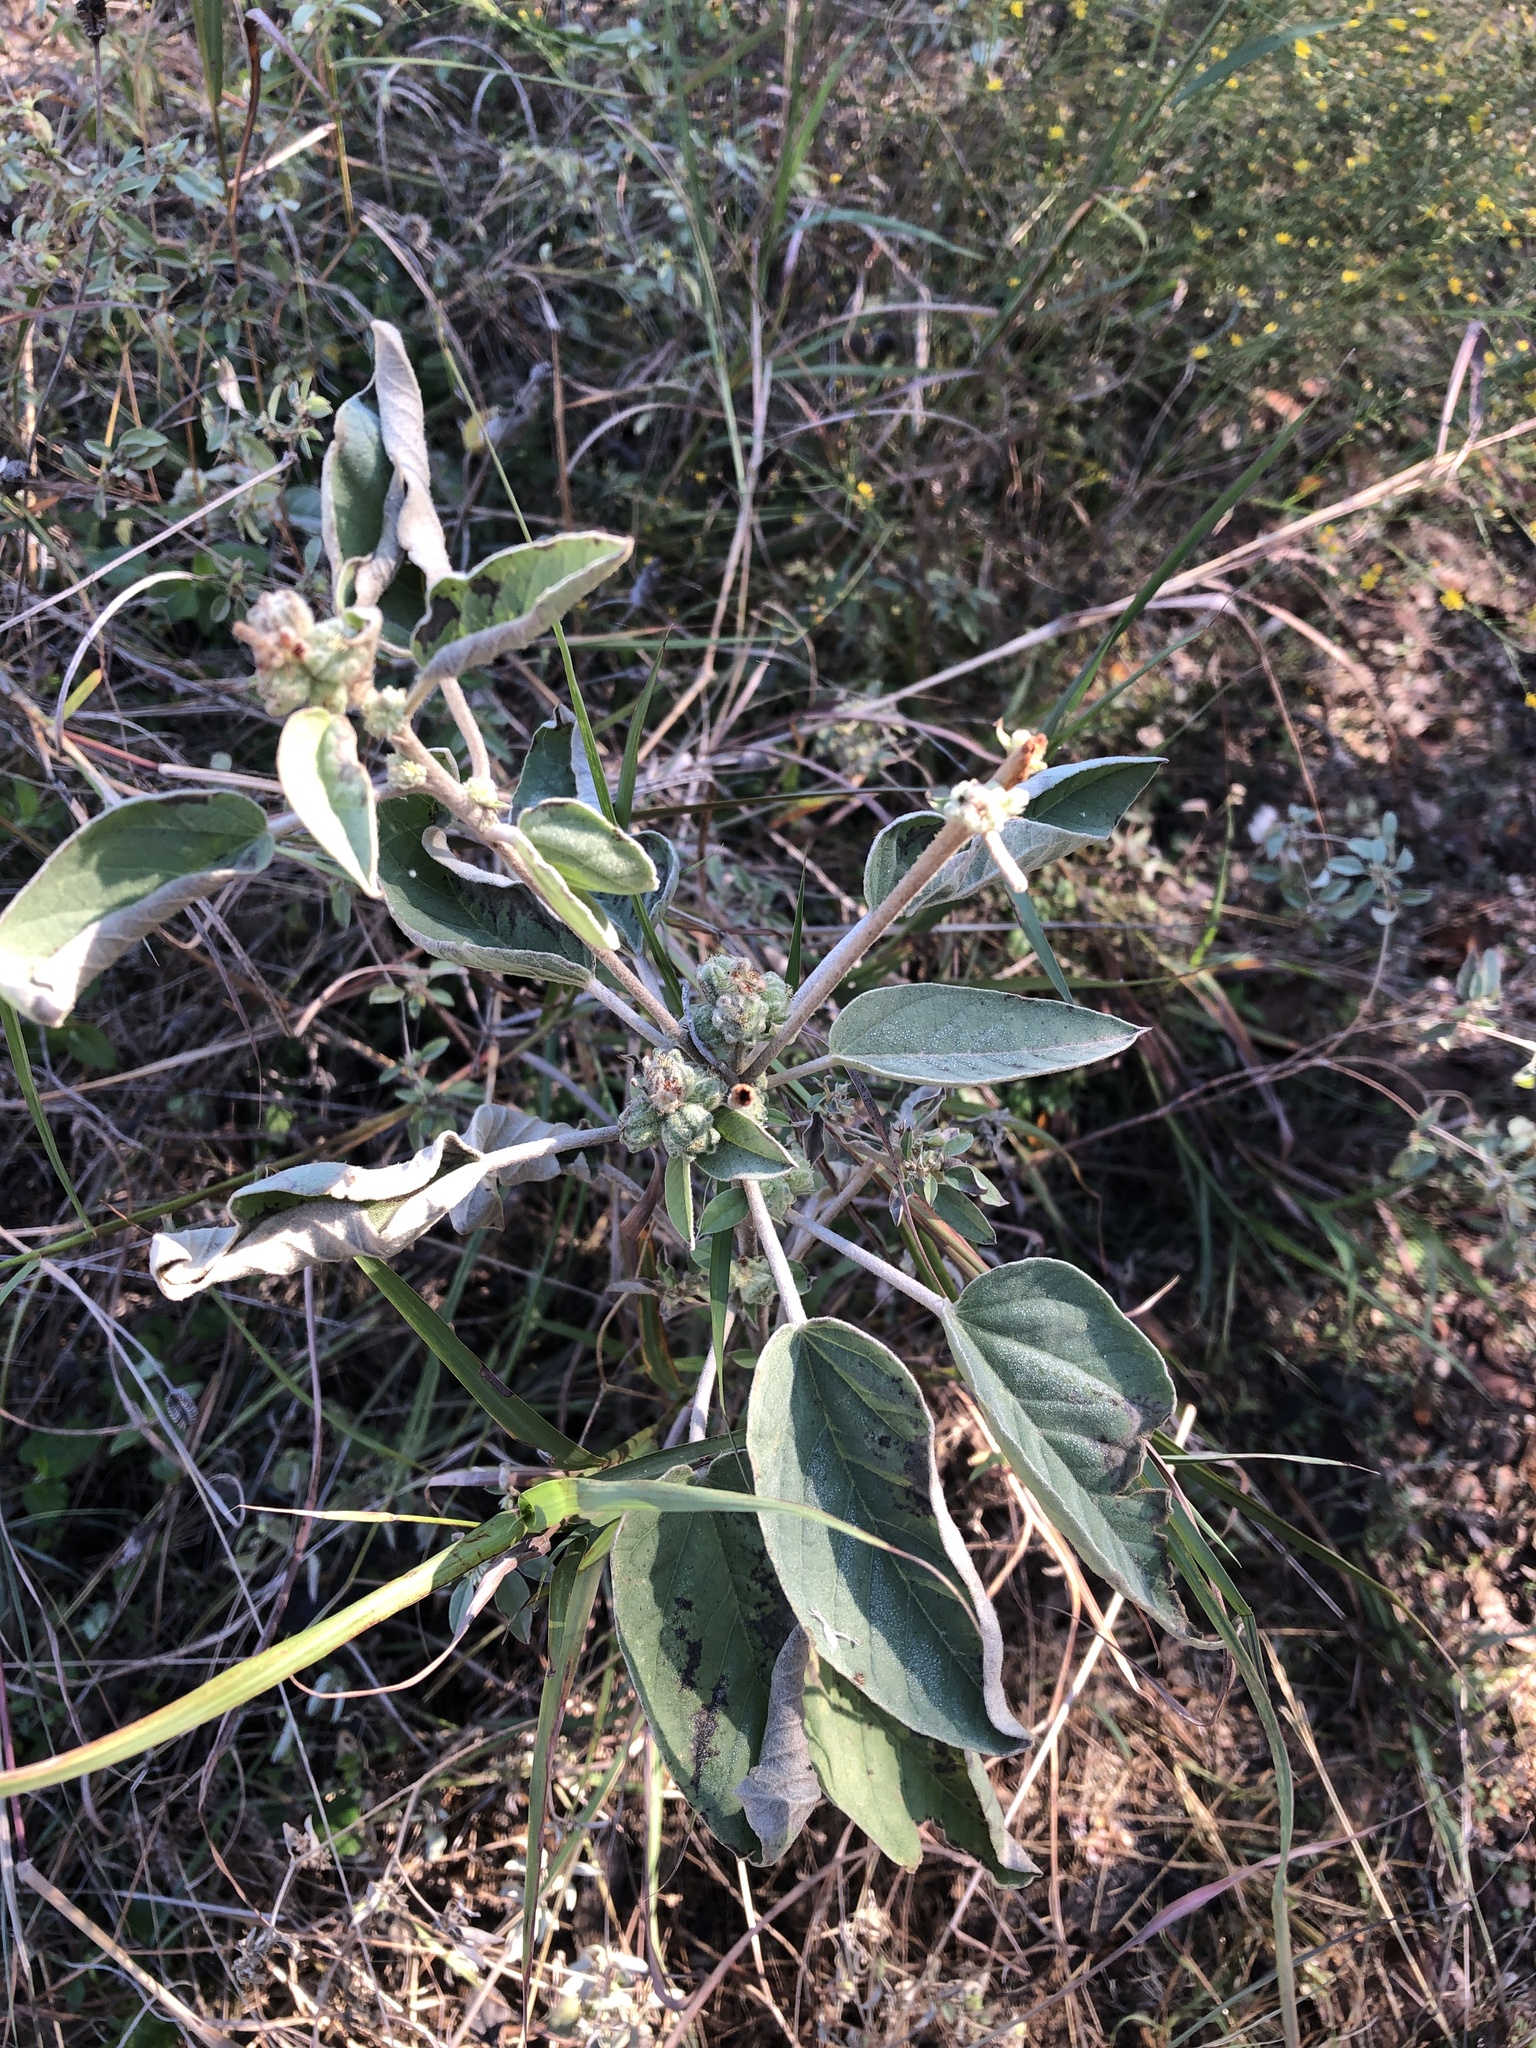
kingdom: Plantae
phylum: Tracheophyta
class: Magnoliopsida
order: Malpighiales
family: Euphorbiaceae
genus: Croton
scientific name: Croton lindheimeri
